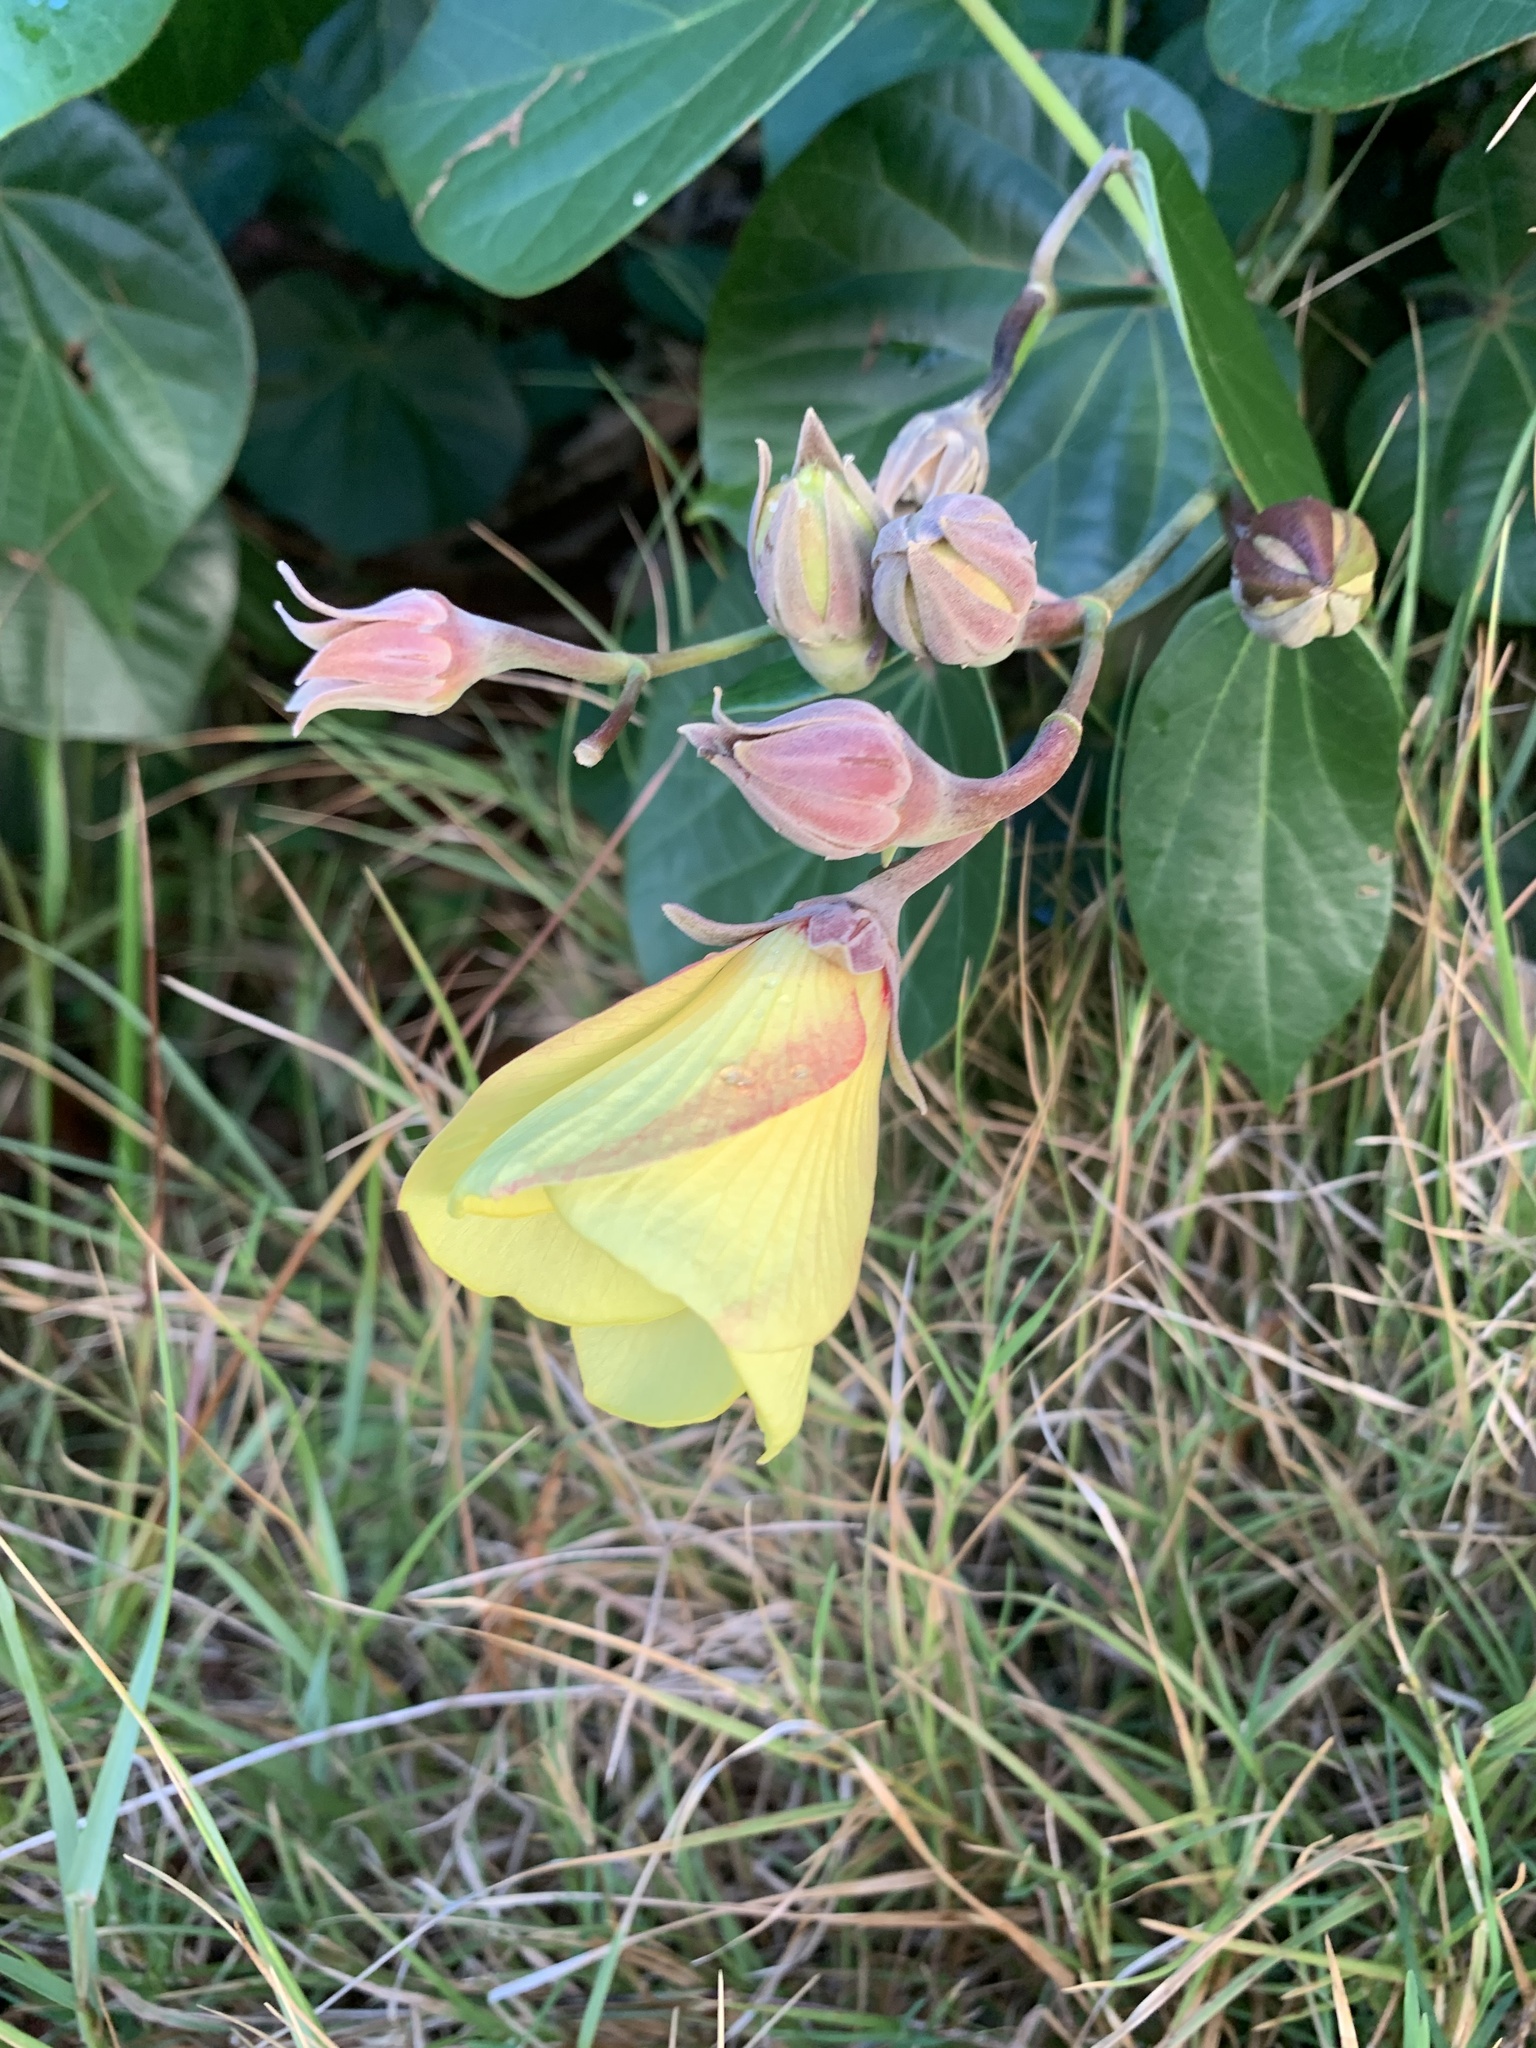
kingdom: Plantae
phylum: Tracheophyta
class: Magnoliopsida
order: Malvales
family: Malvaceae
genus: Talipariti
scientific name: Talipariti tiliaceum
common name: Sea hibiscus
